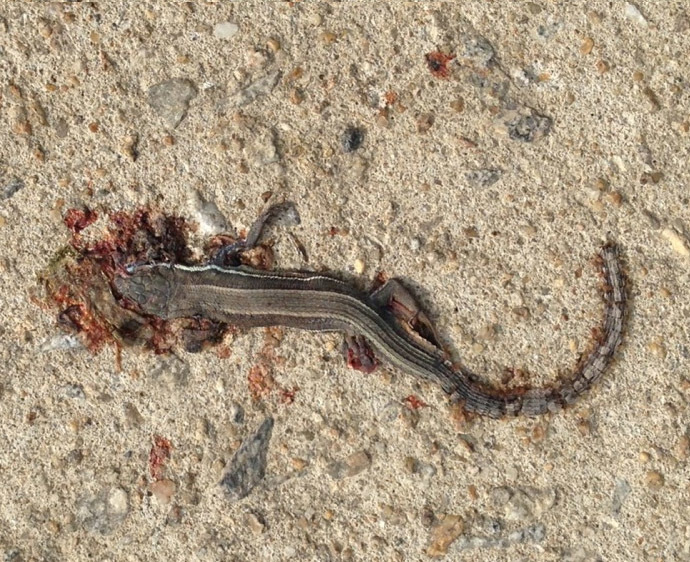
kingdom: Animalia
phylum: Chordata
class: Squamata
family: Lacertidae
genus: Takydromus
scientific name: Takydromus wolteri
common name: Mountain grass lizard
